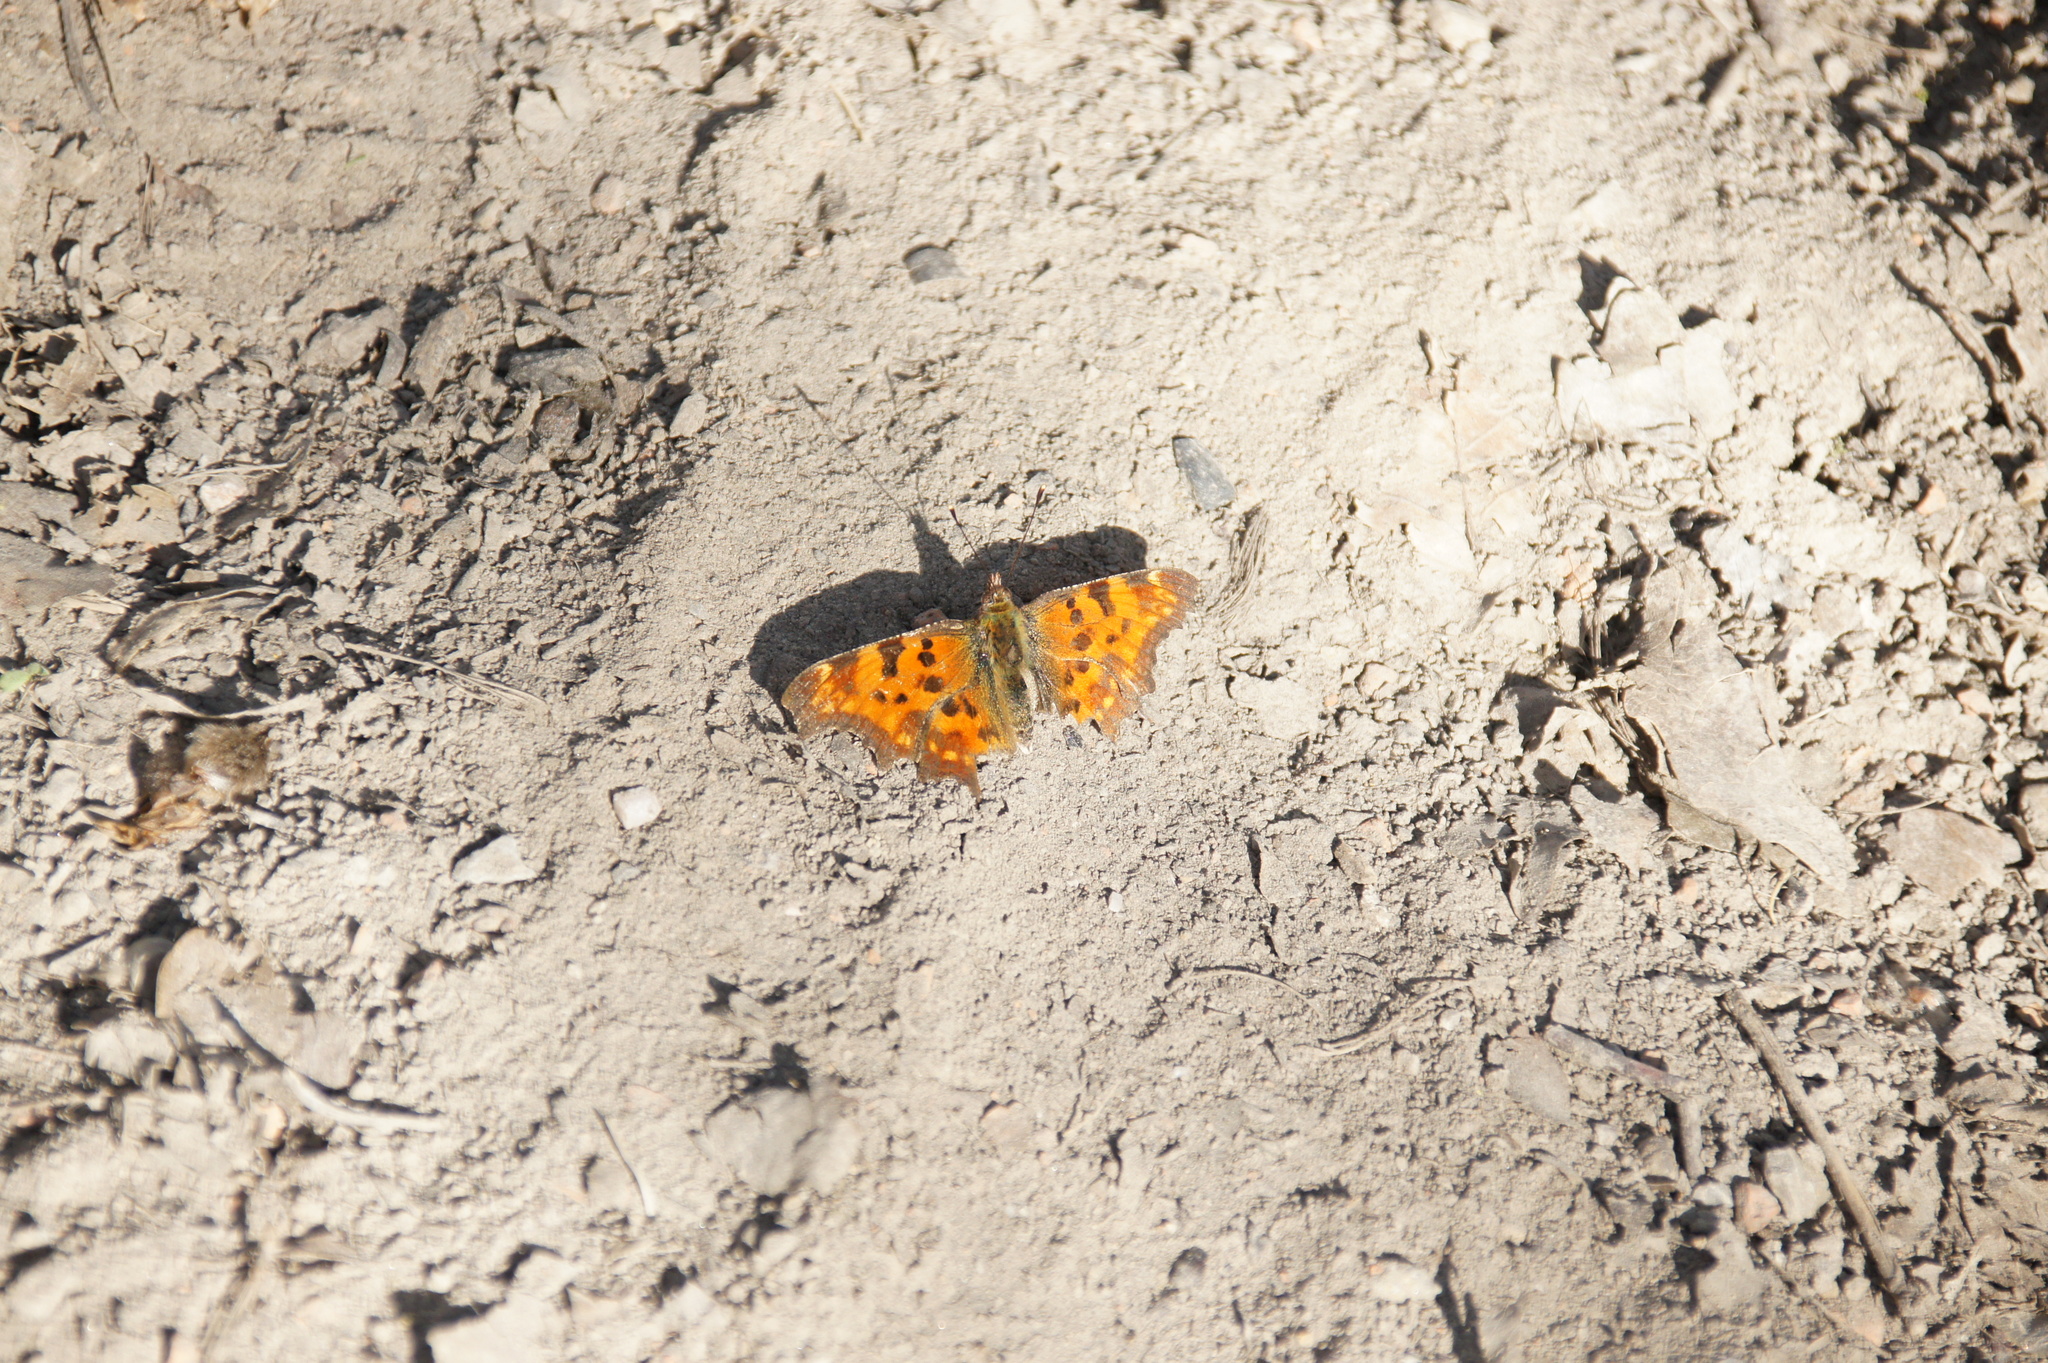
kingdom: Animalia
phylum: Arthropoda
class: Insecta
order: Lepidoptera
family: Nymphalidae
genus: Polygonia
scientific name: Polygonia c-album
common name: Comma
